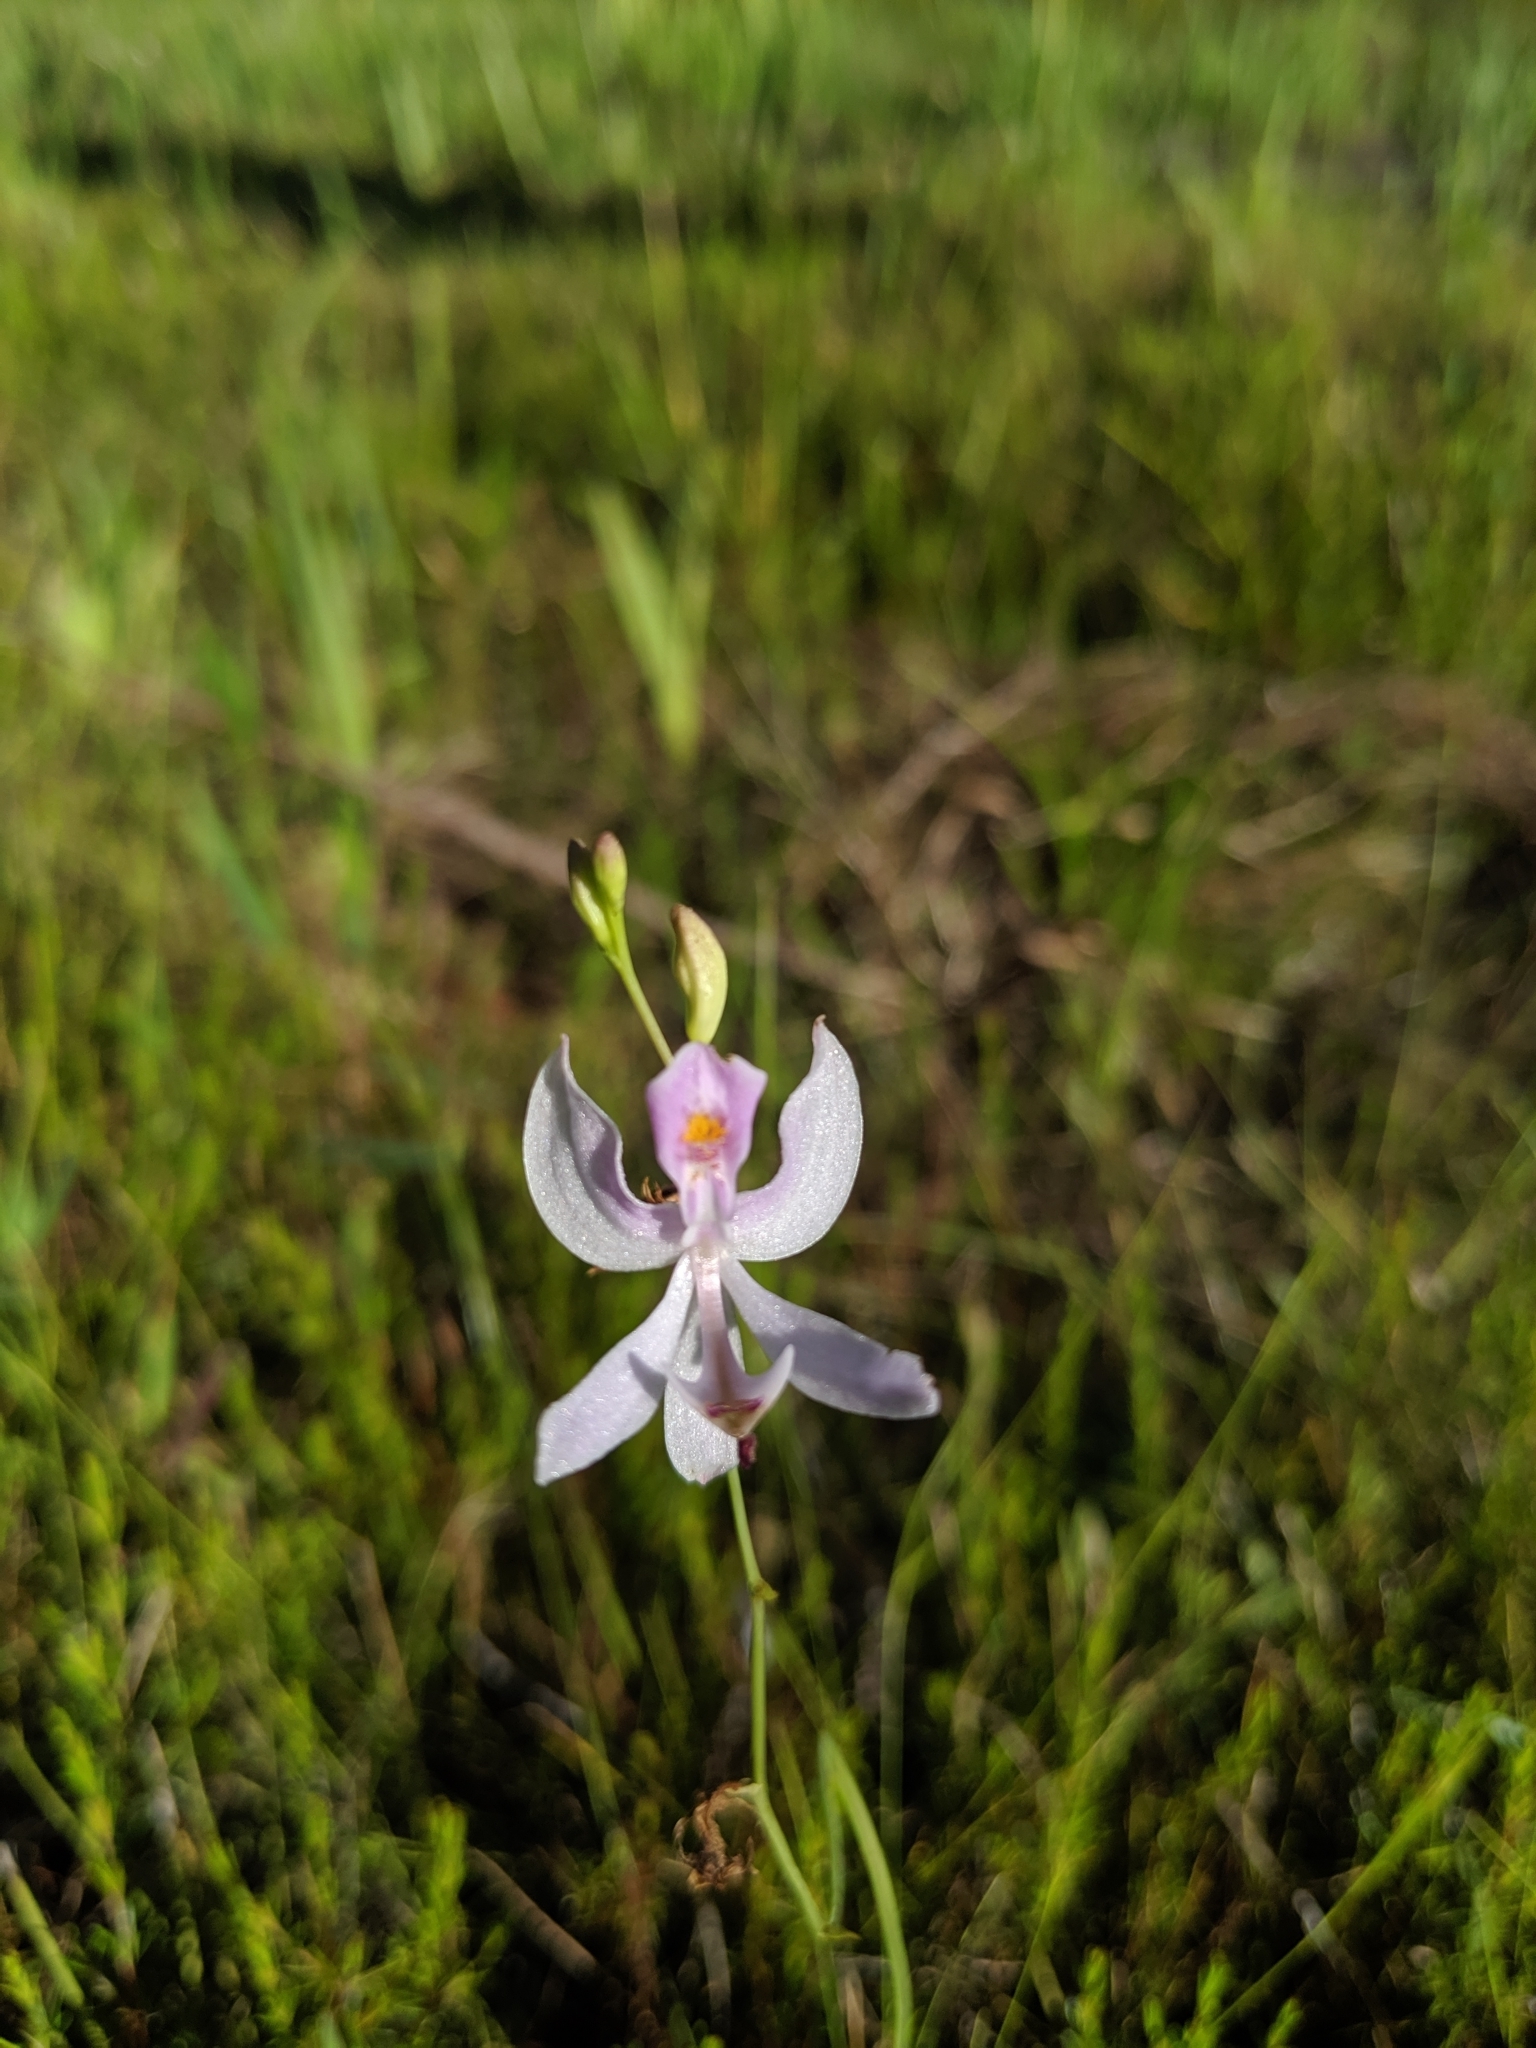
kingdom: Plantae
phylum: Tracheophyta
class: Liliopsida
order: Asparagales
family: Orchidaceae
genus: Calopogon
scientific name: Calopogon pallidus
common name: Pale grasspink
